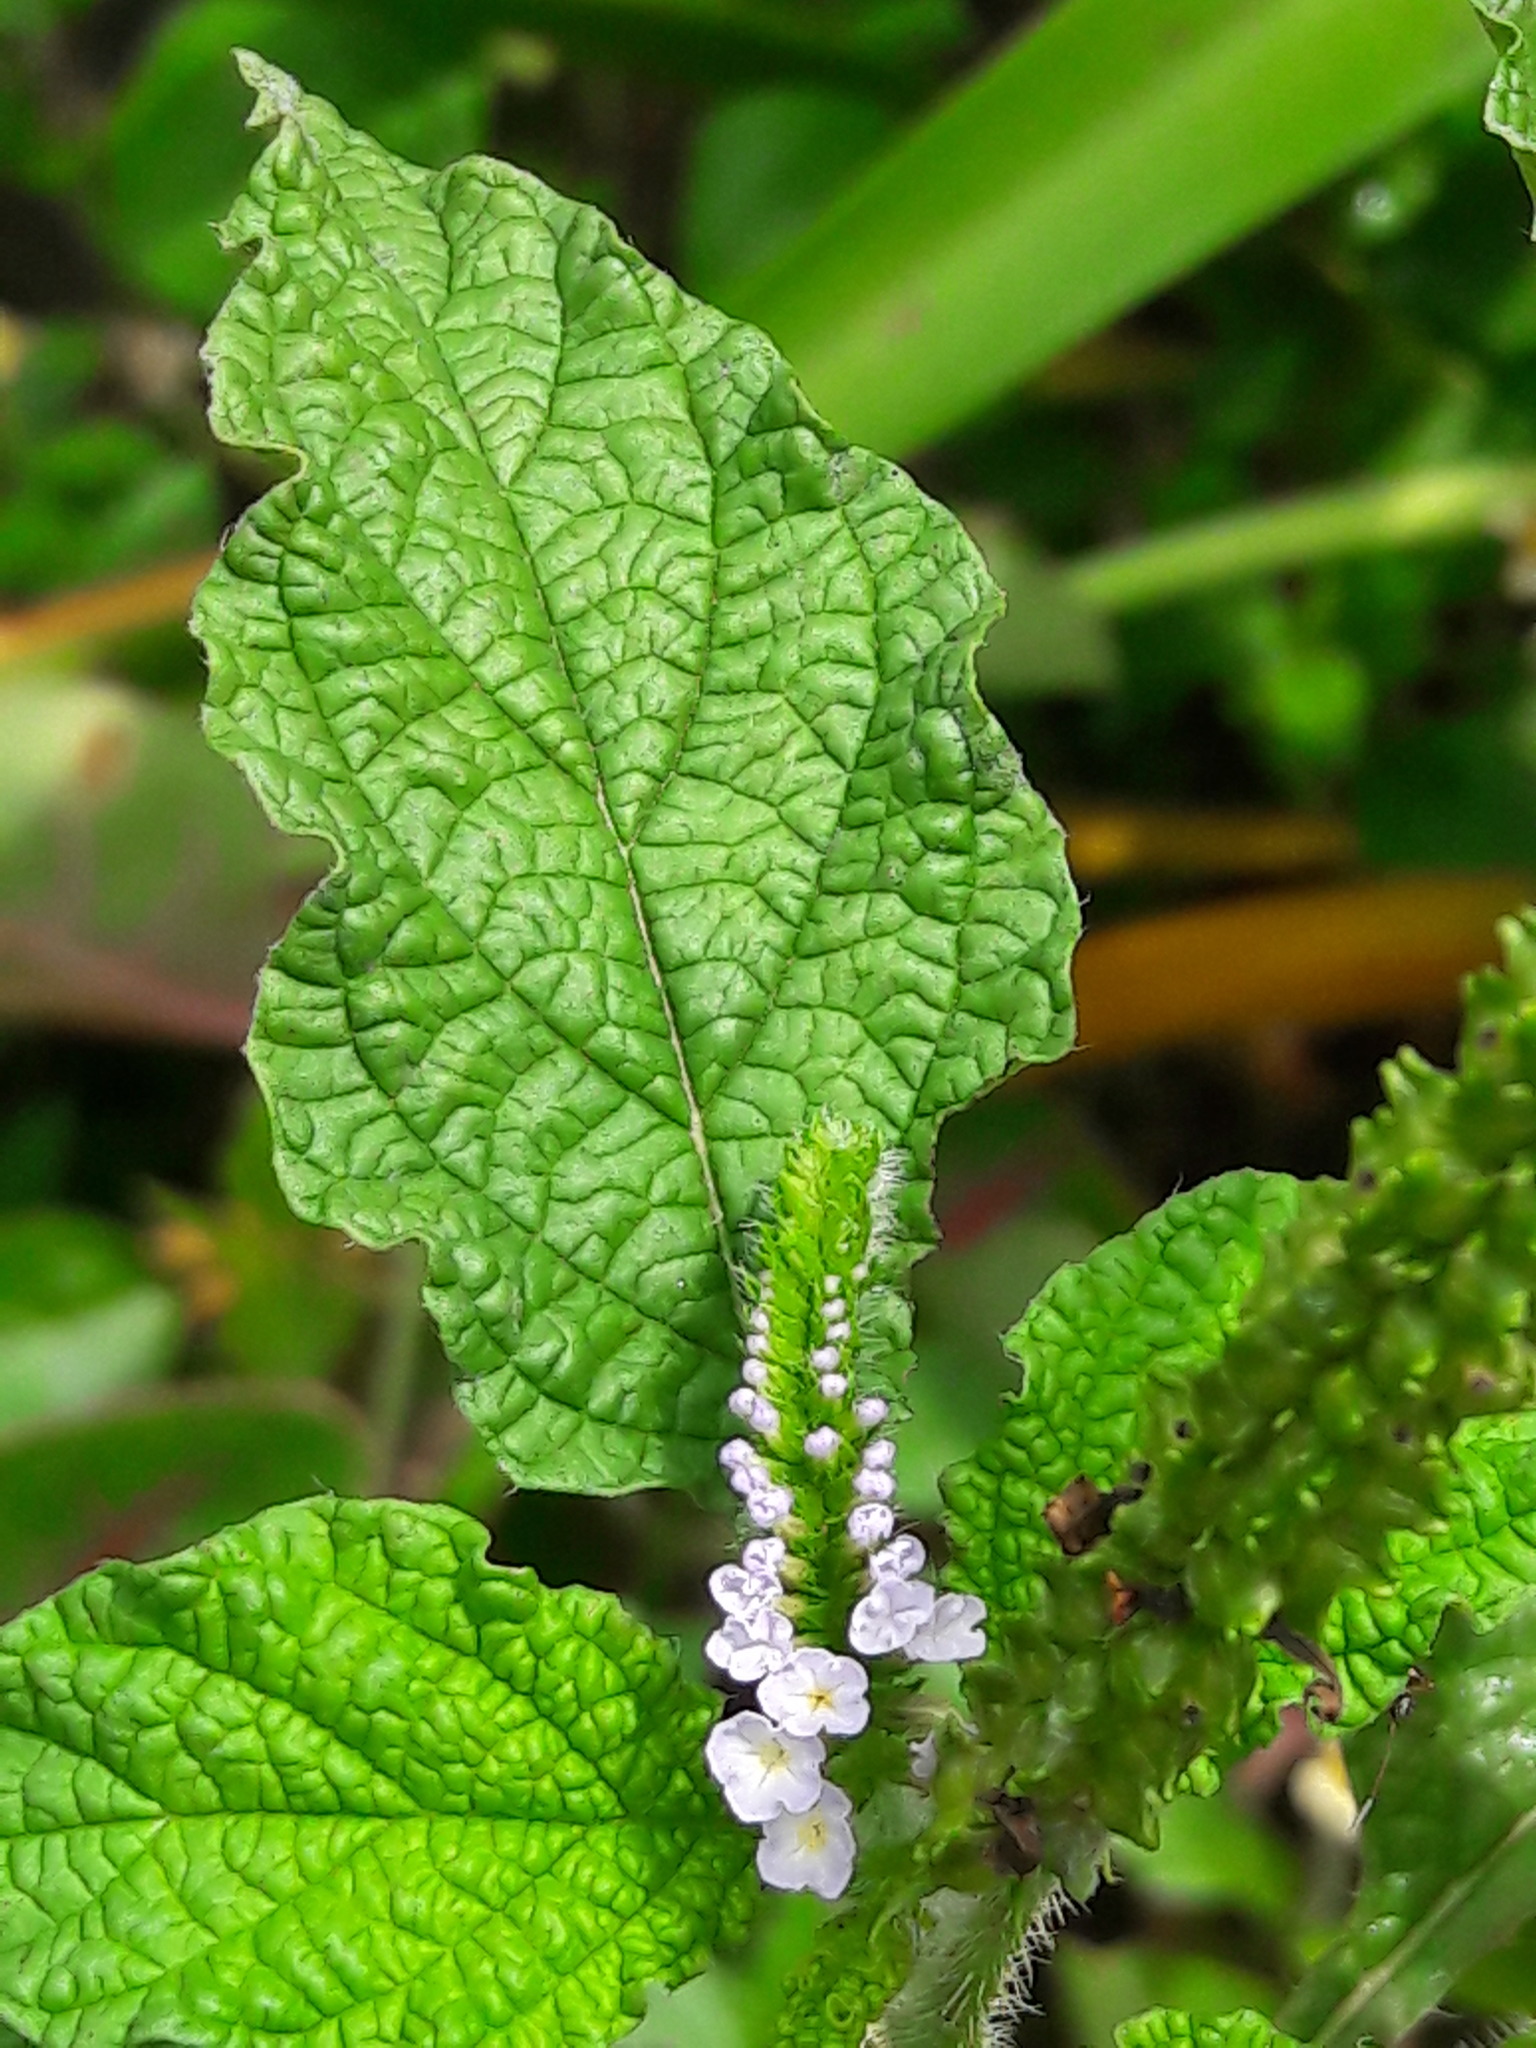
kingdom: Plantae
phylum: Tracheophyta
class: Magnoliopsida
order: Boraginales
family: Heliotropiaceae
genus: Heliotropium
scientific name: Heliotropium indicum
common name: Indian heliotrope
